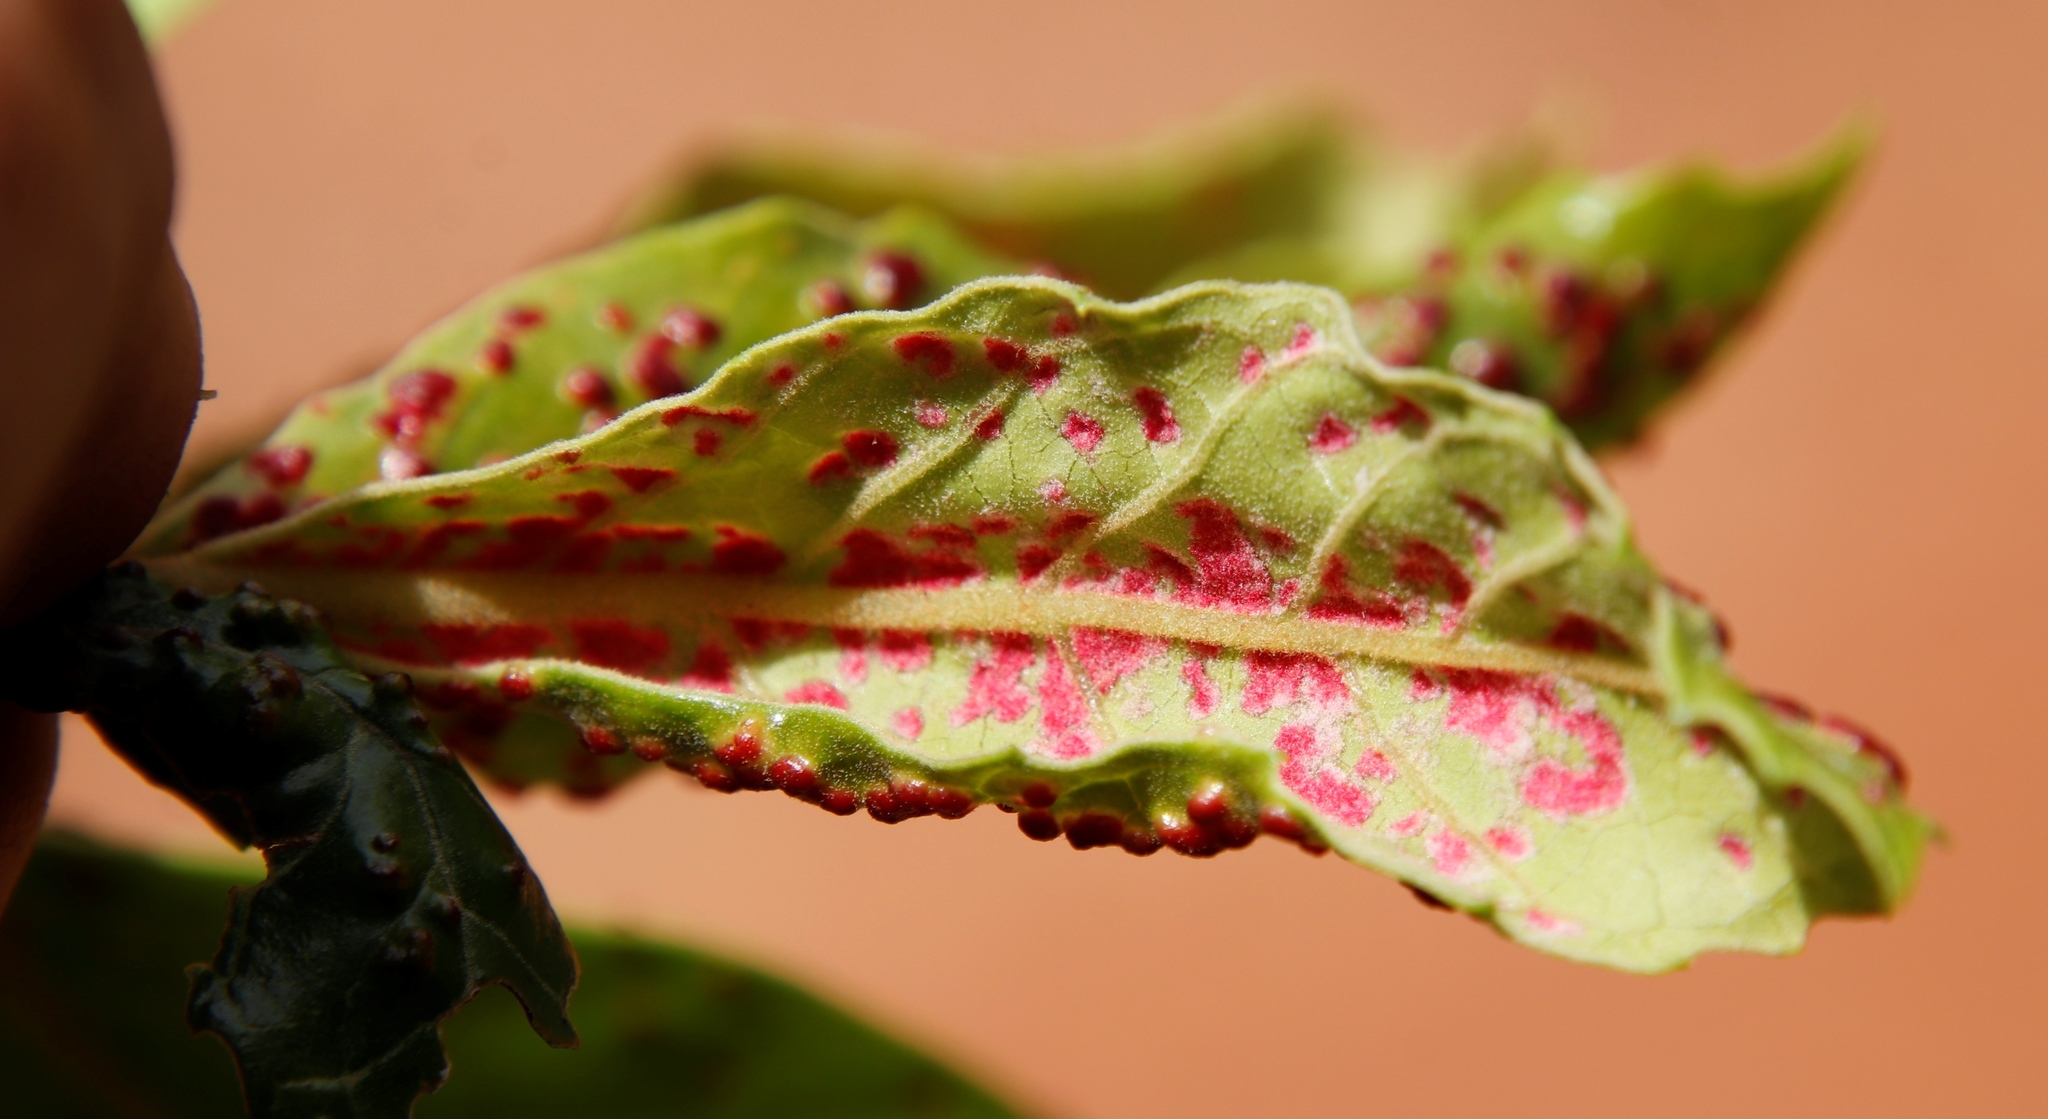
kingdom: Plantae
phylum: Tracheophyta
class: Magnoliopsida
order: Cornales
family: Curtisiaceae
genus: Curtisia
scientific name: Curtisia dentata
